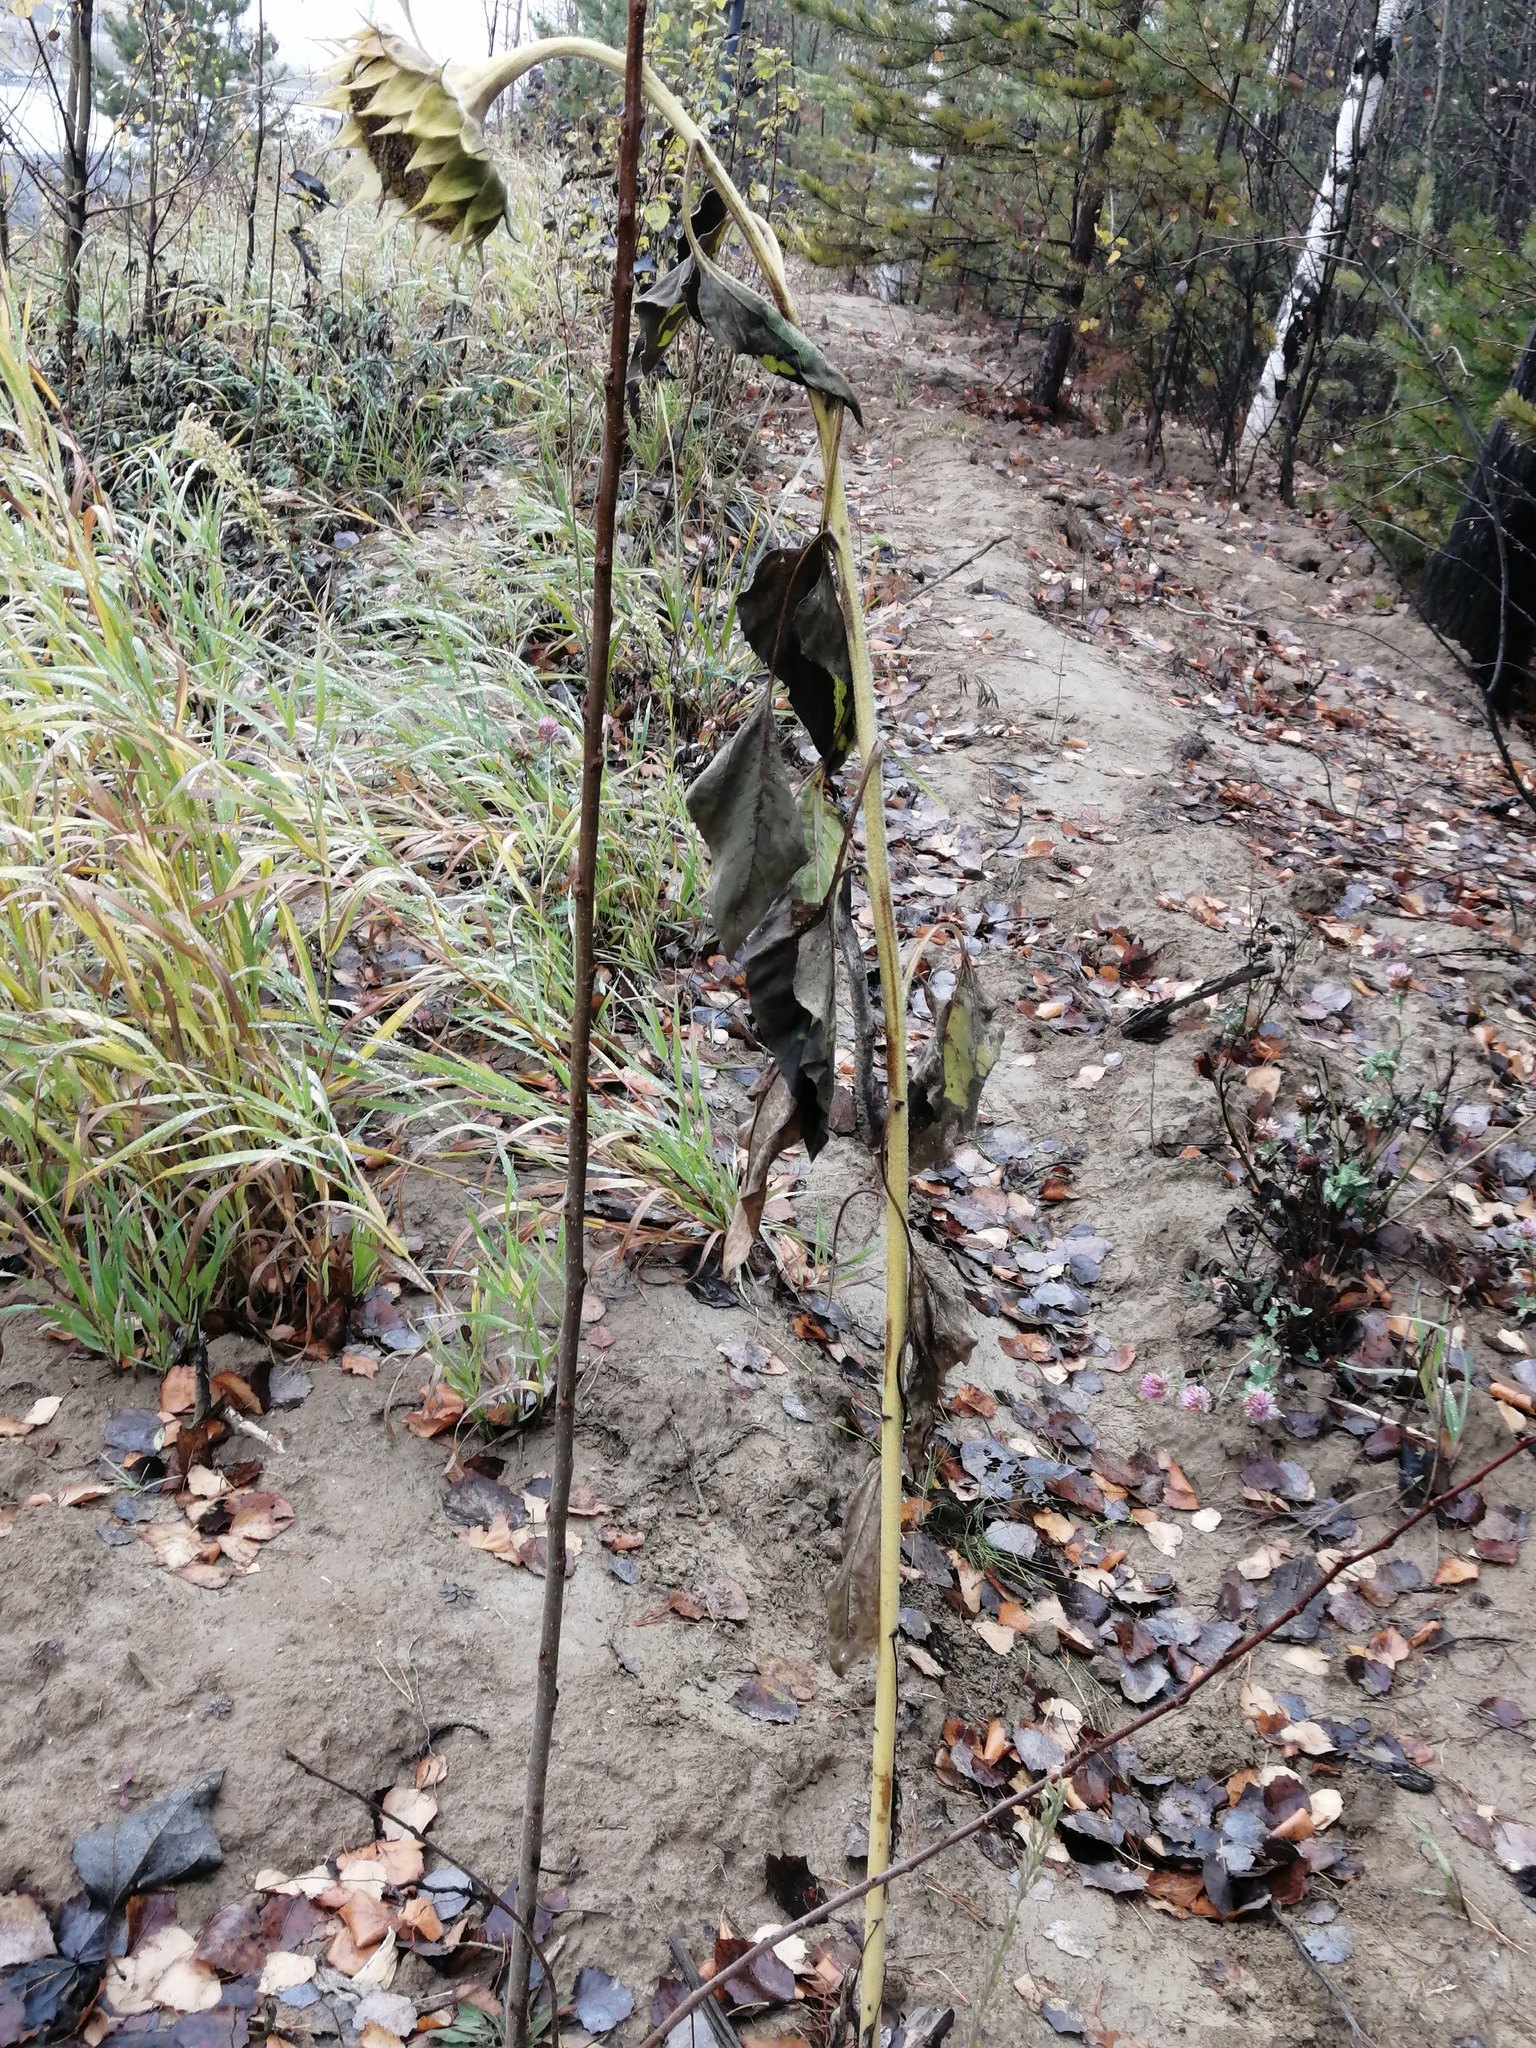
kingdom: Plantae
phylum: Tracheophyta
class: Magnoliopsida
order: Asterales
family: Asteraceae
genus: Helianthus
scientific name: Helianthus annuus
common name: Sunflower
